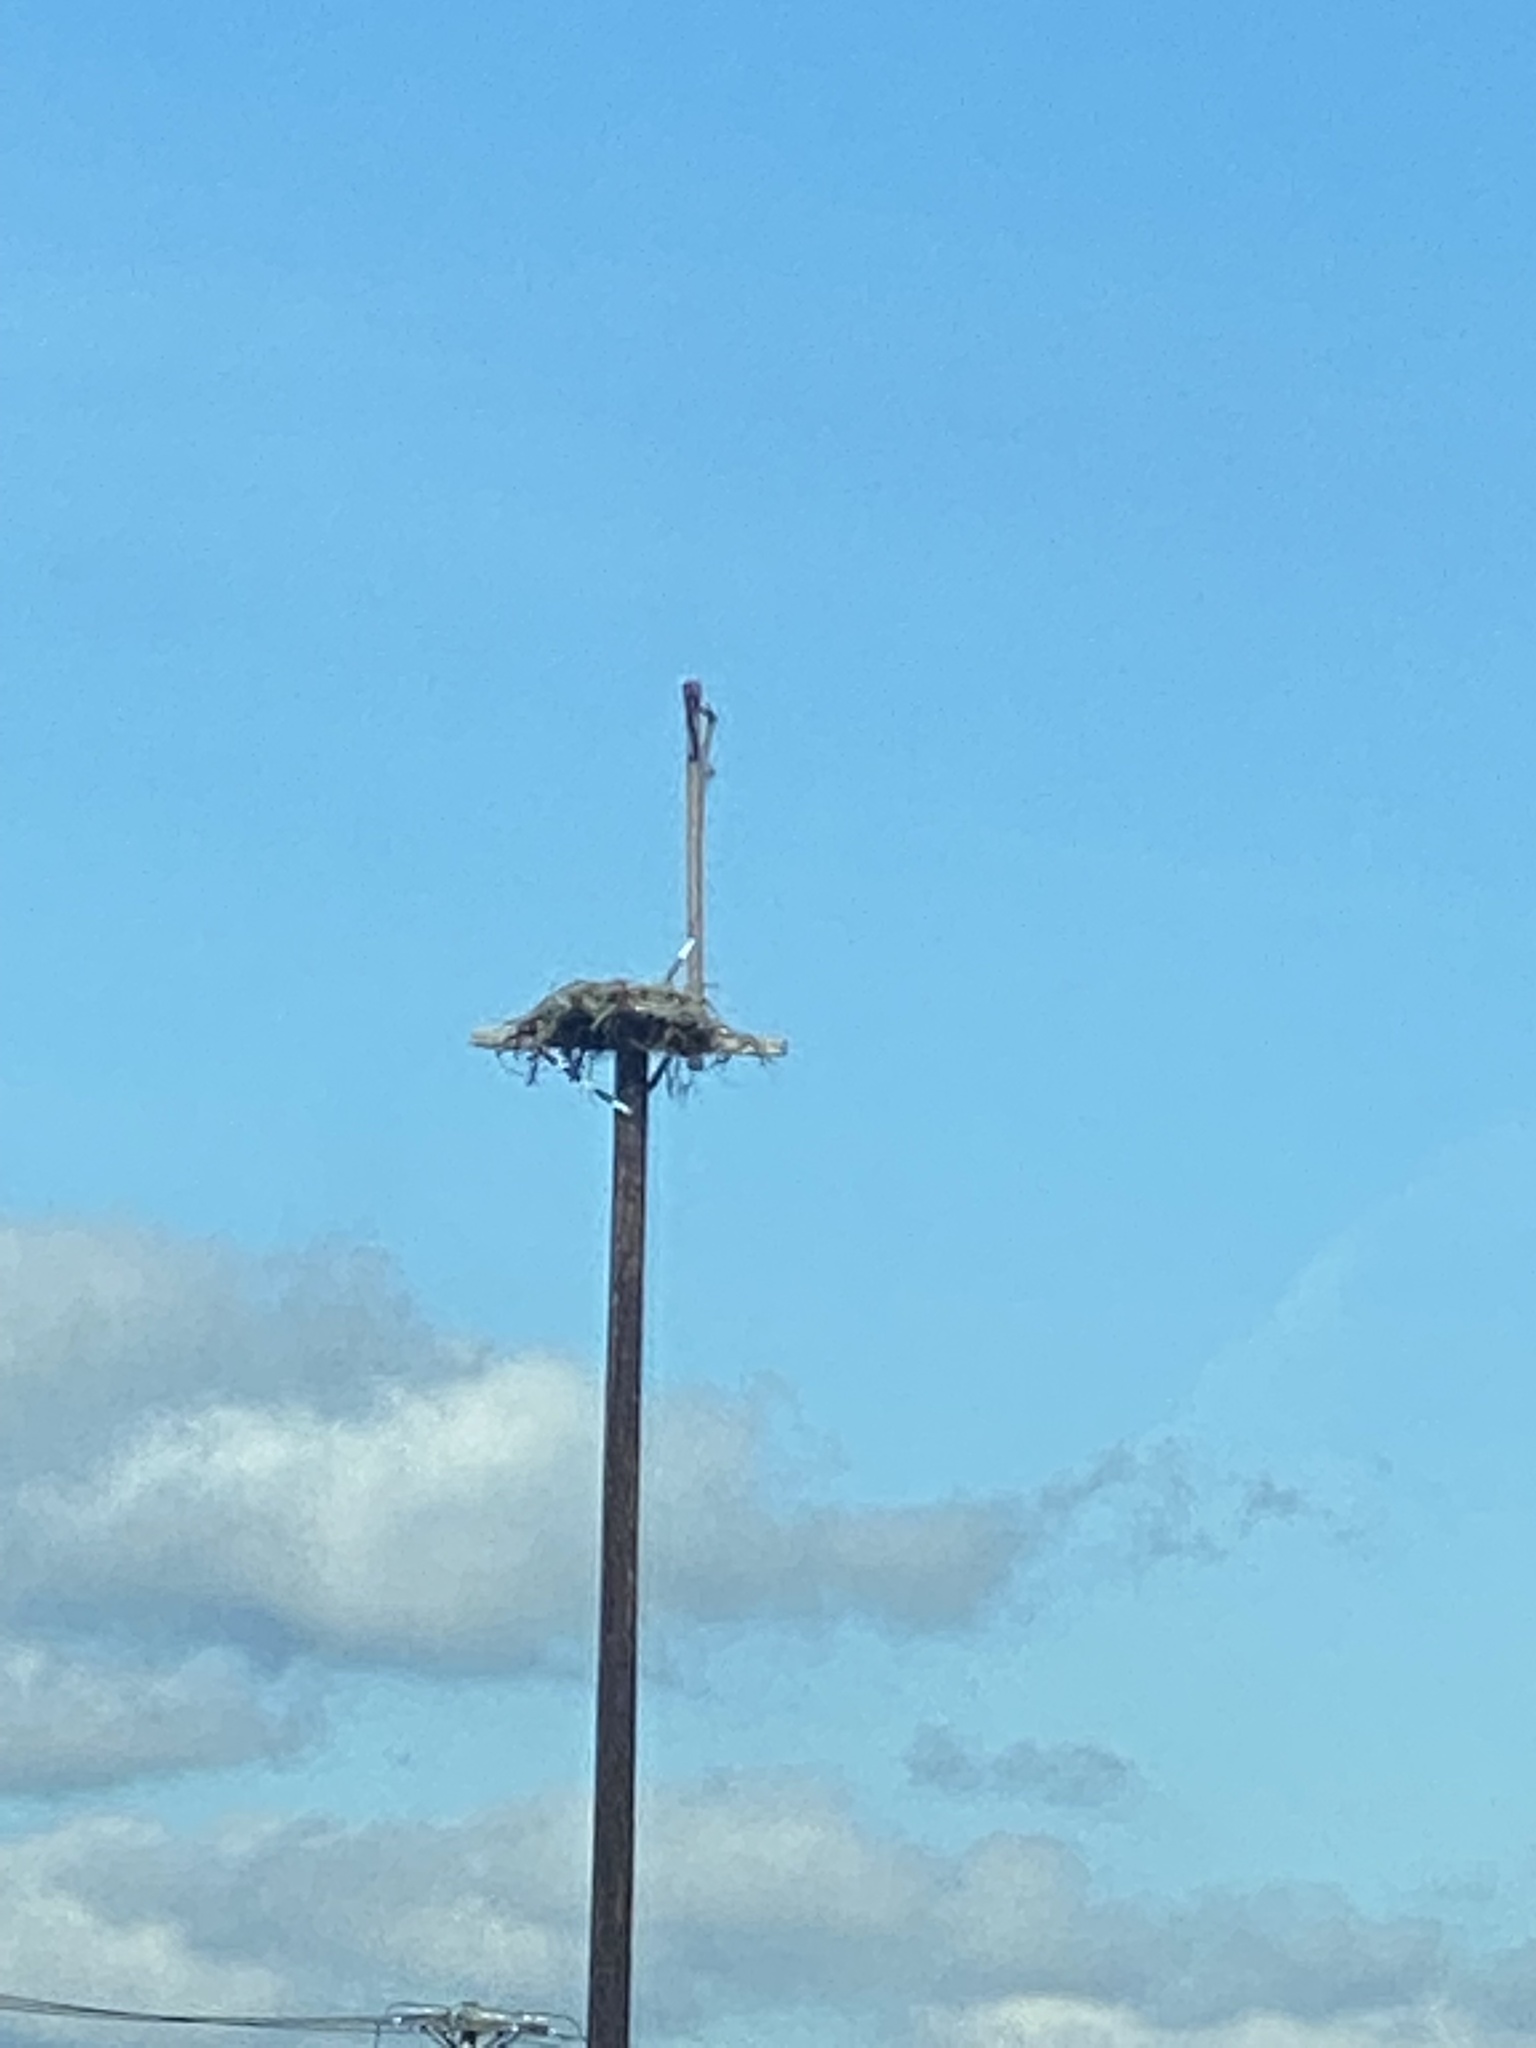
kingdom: Animalia
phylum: Chordata
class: Aves
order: Accipitriformes
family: Pandionidae
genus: Pandion
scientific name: Pandion haliaetus
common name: Osprey
